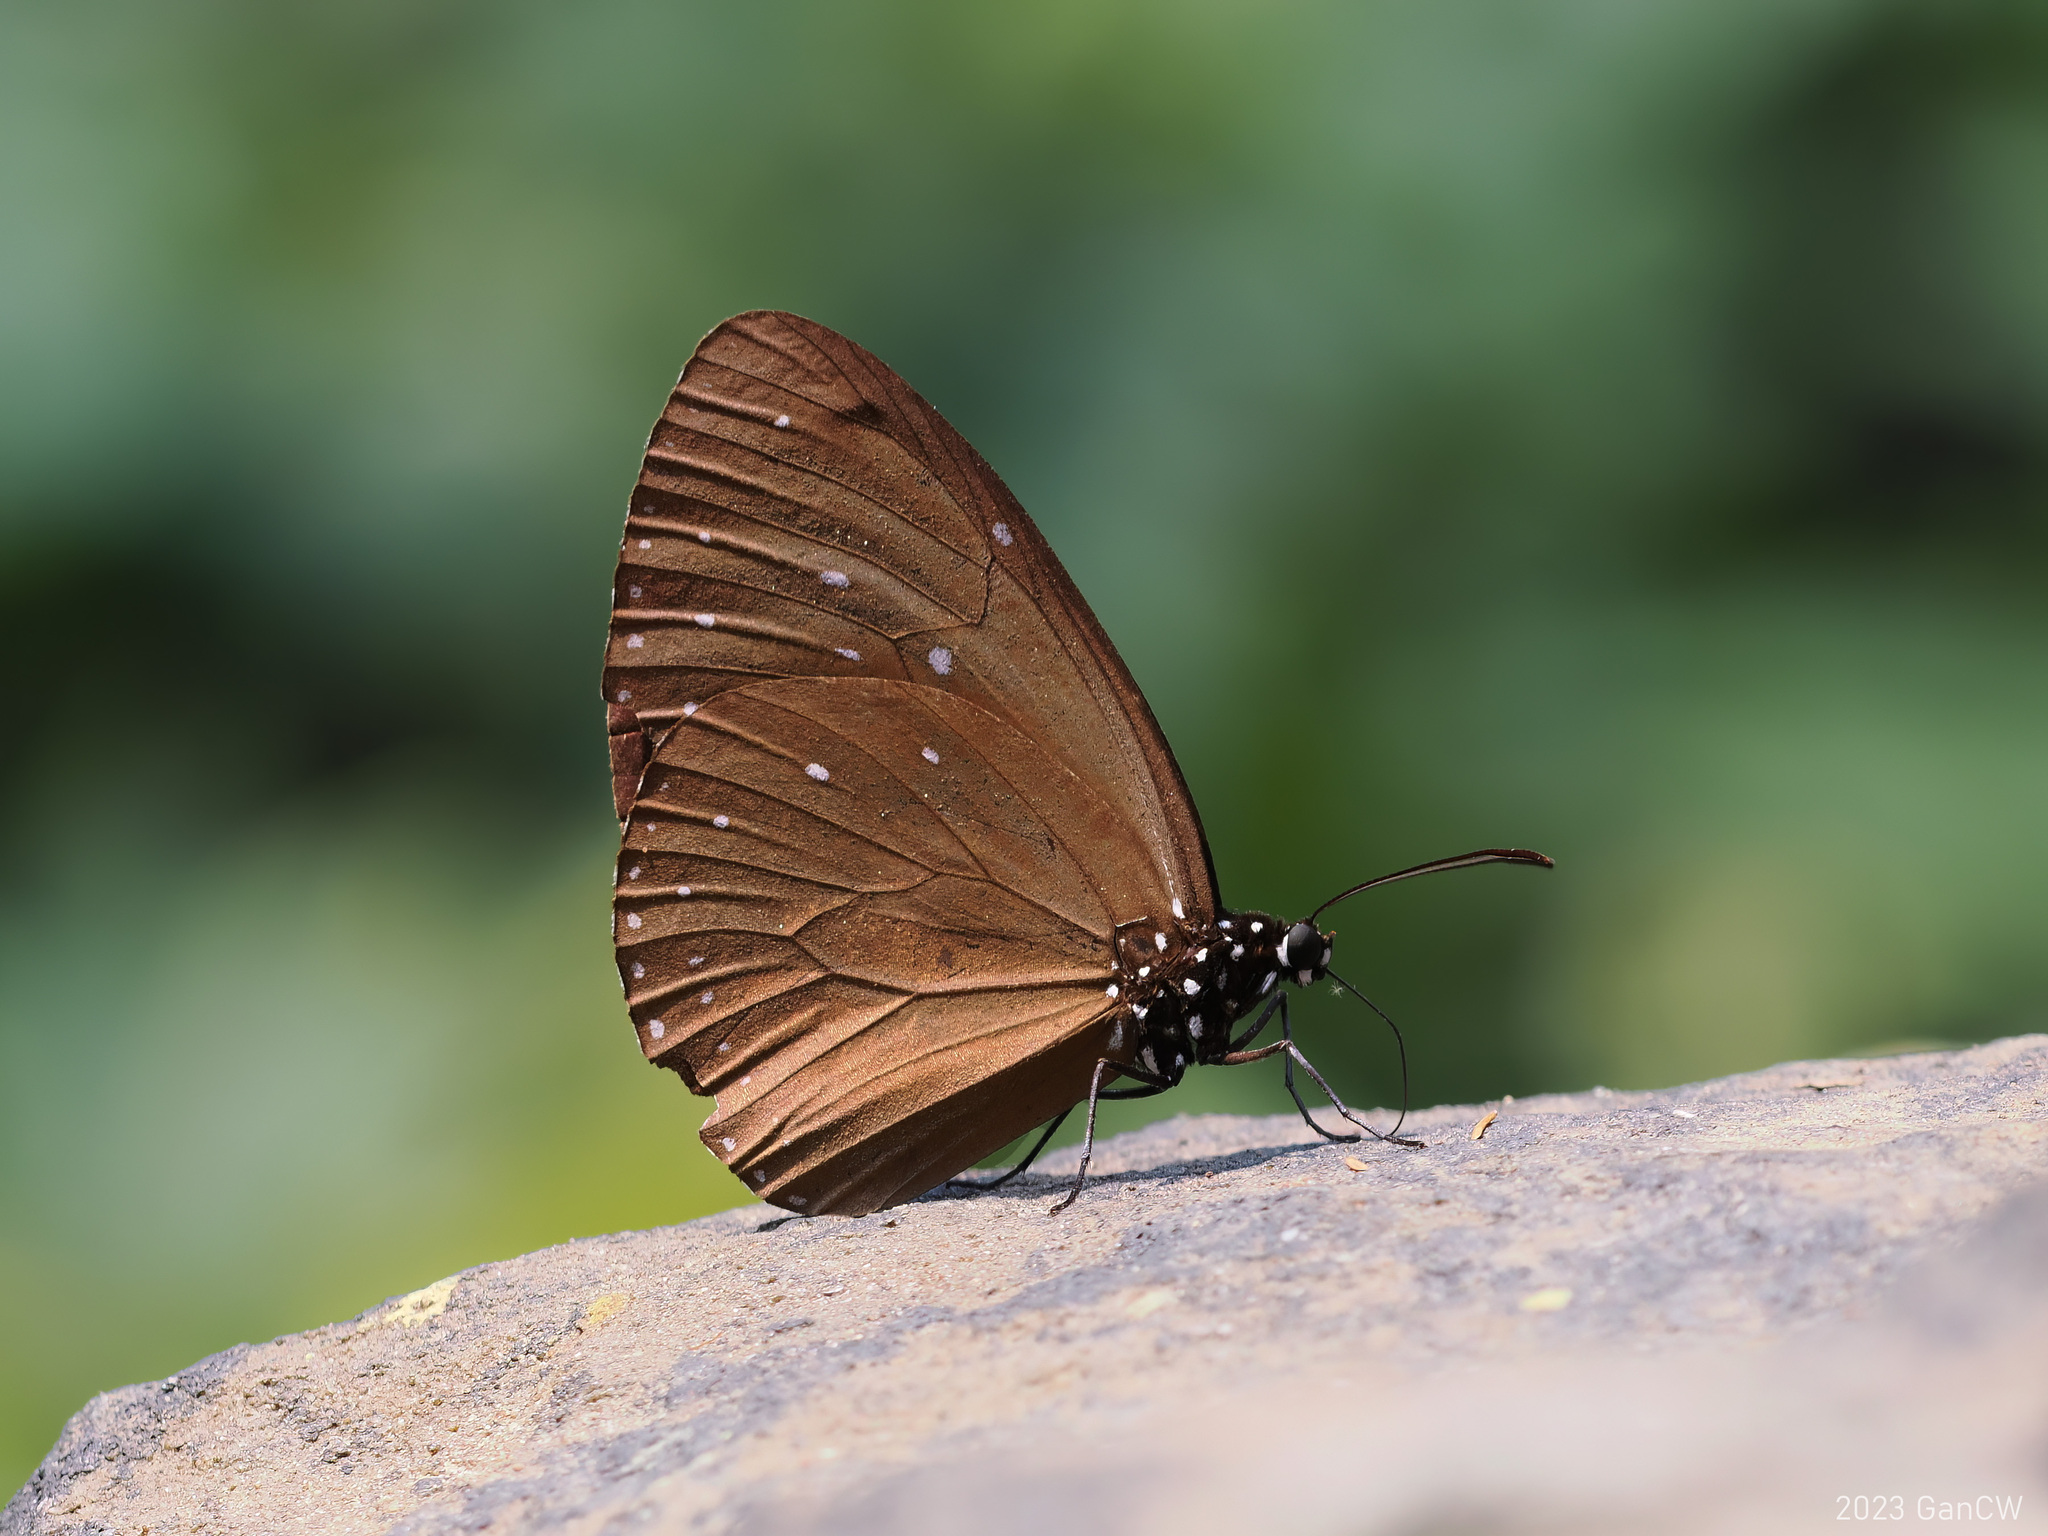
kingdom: Animalia
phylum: Arthropoda
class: Insecta
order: Lepidoptera
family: Nymphalidae
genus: Euploea
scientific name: Euploea tulliolus
